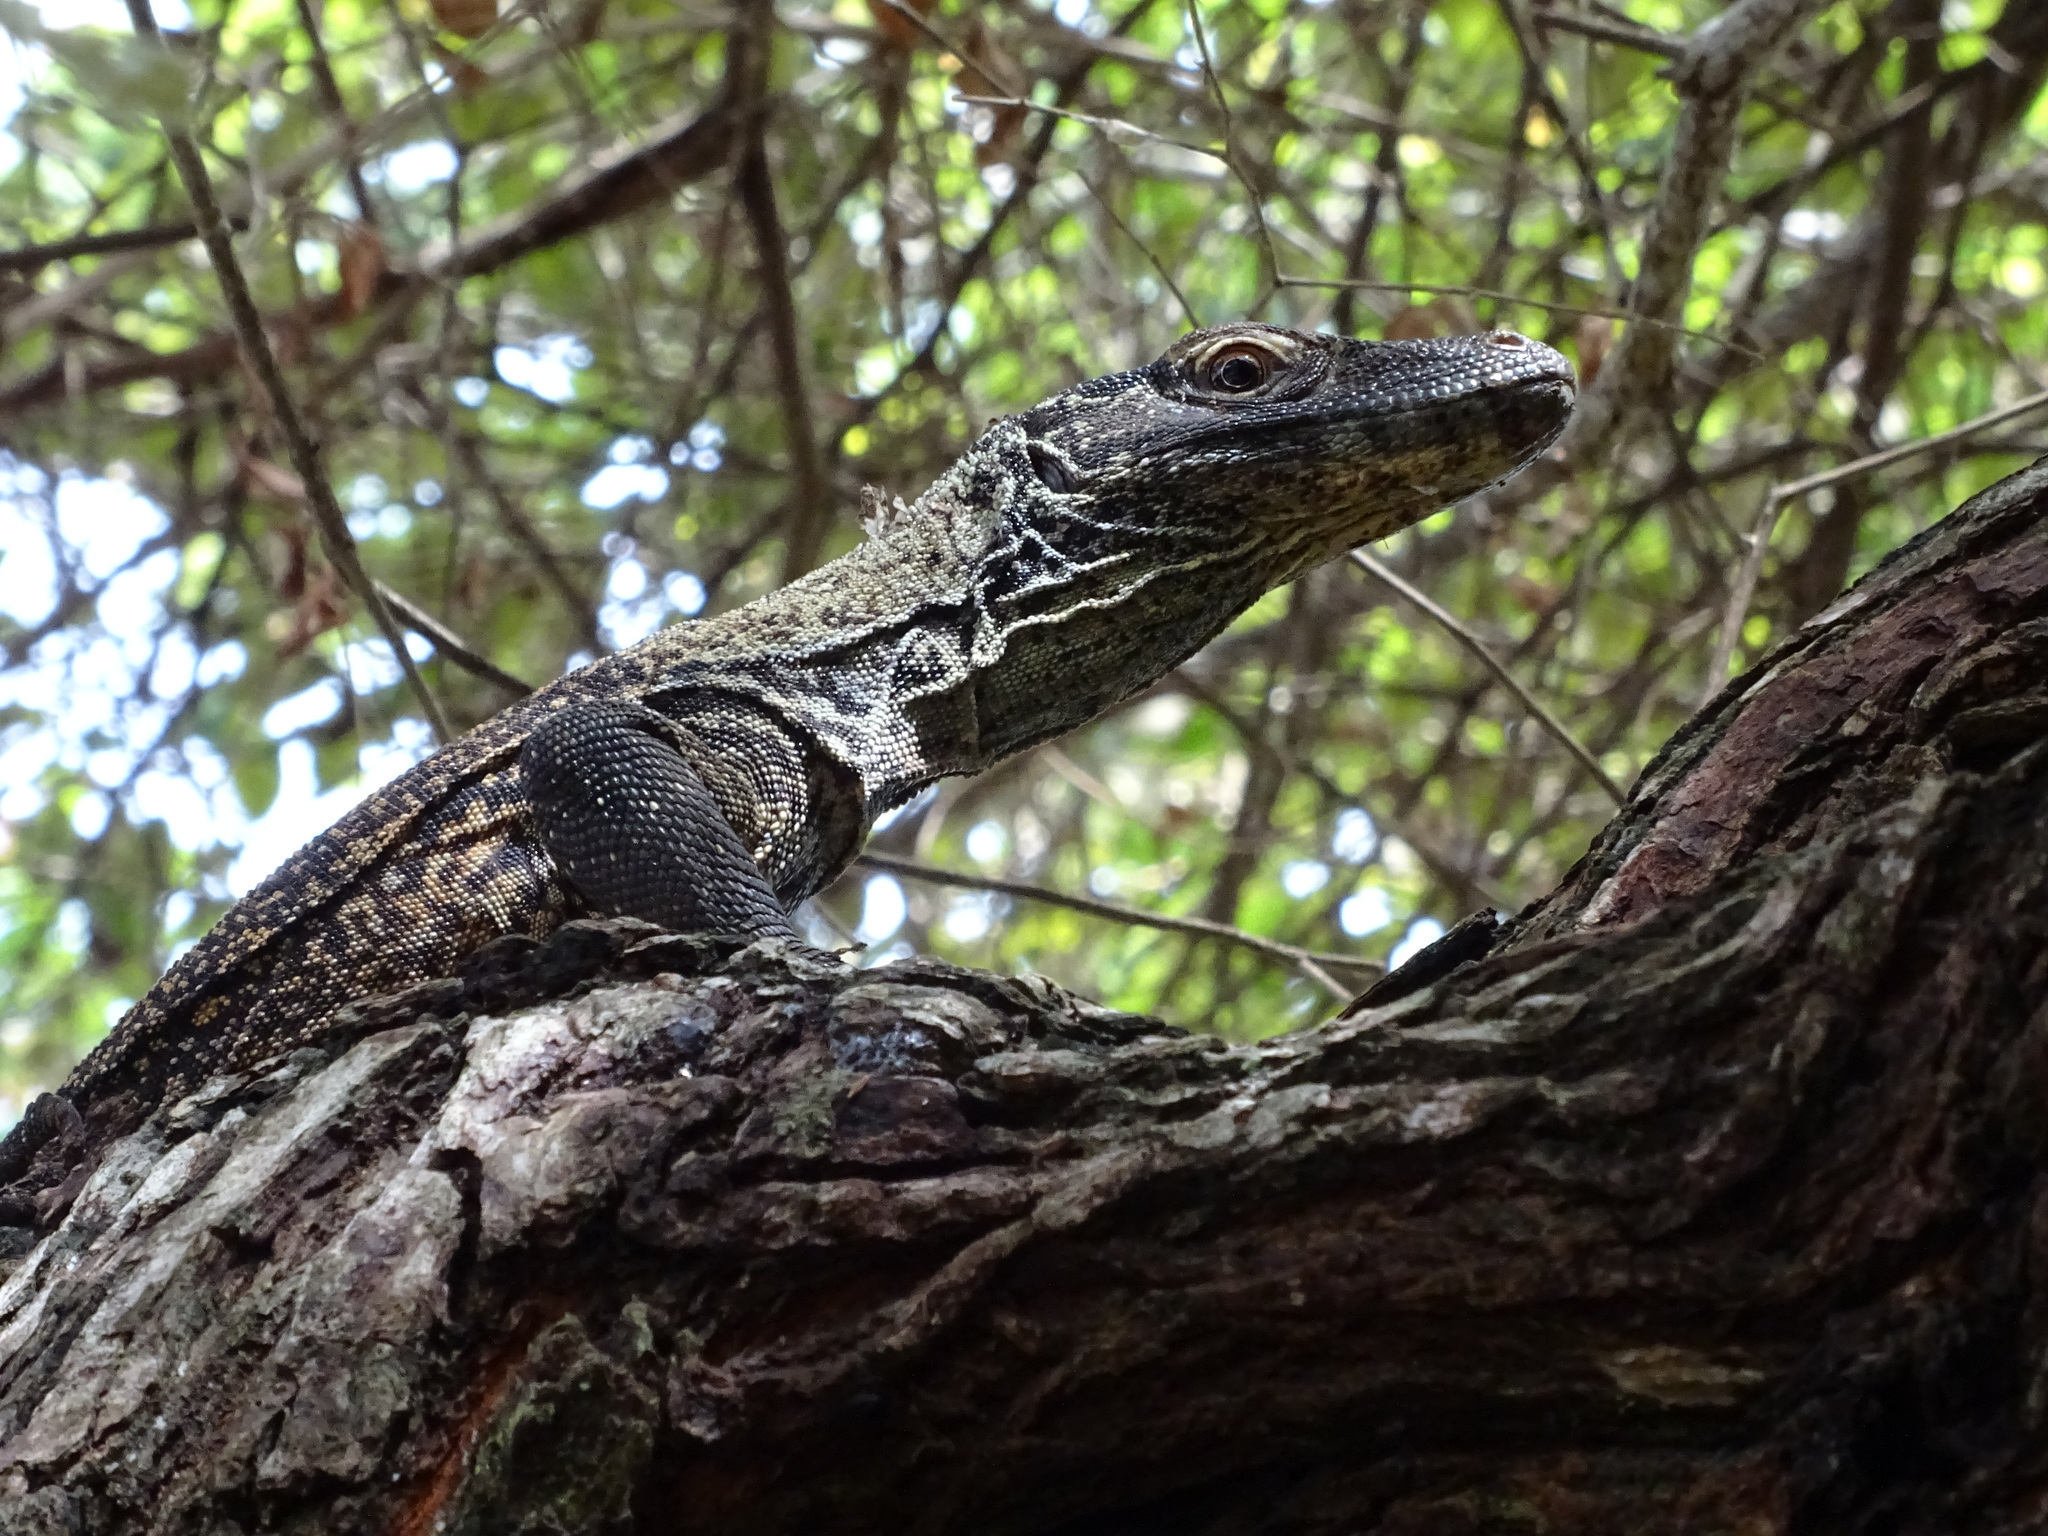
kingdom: Animalia
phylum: Chordata
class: Squamata
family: Varanidae
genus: Varanus
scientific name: Varanus komodoensis
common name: Komodo dragon
